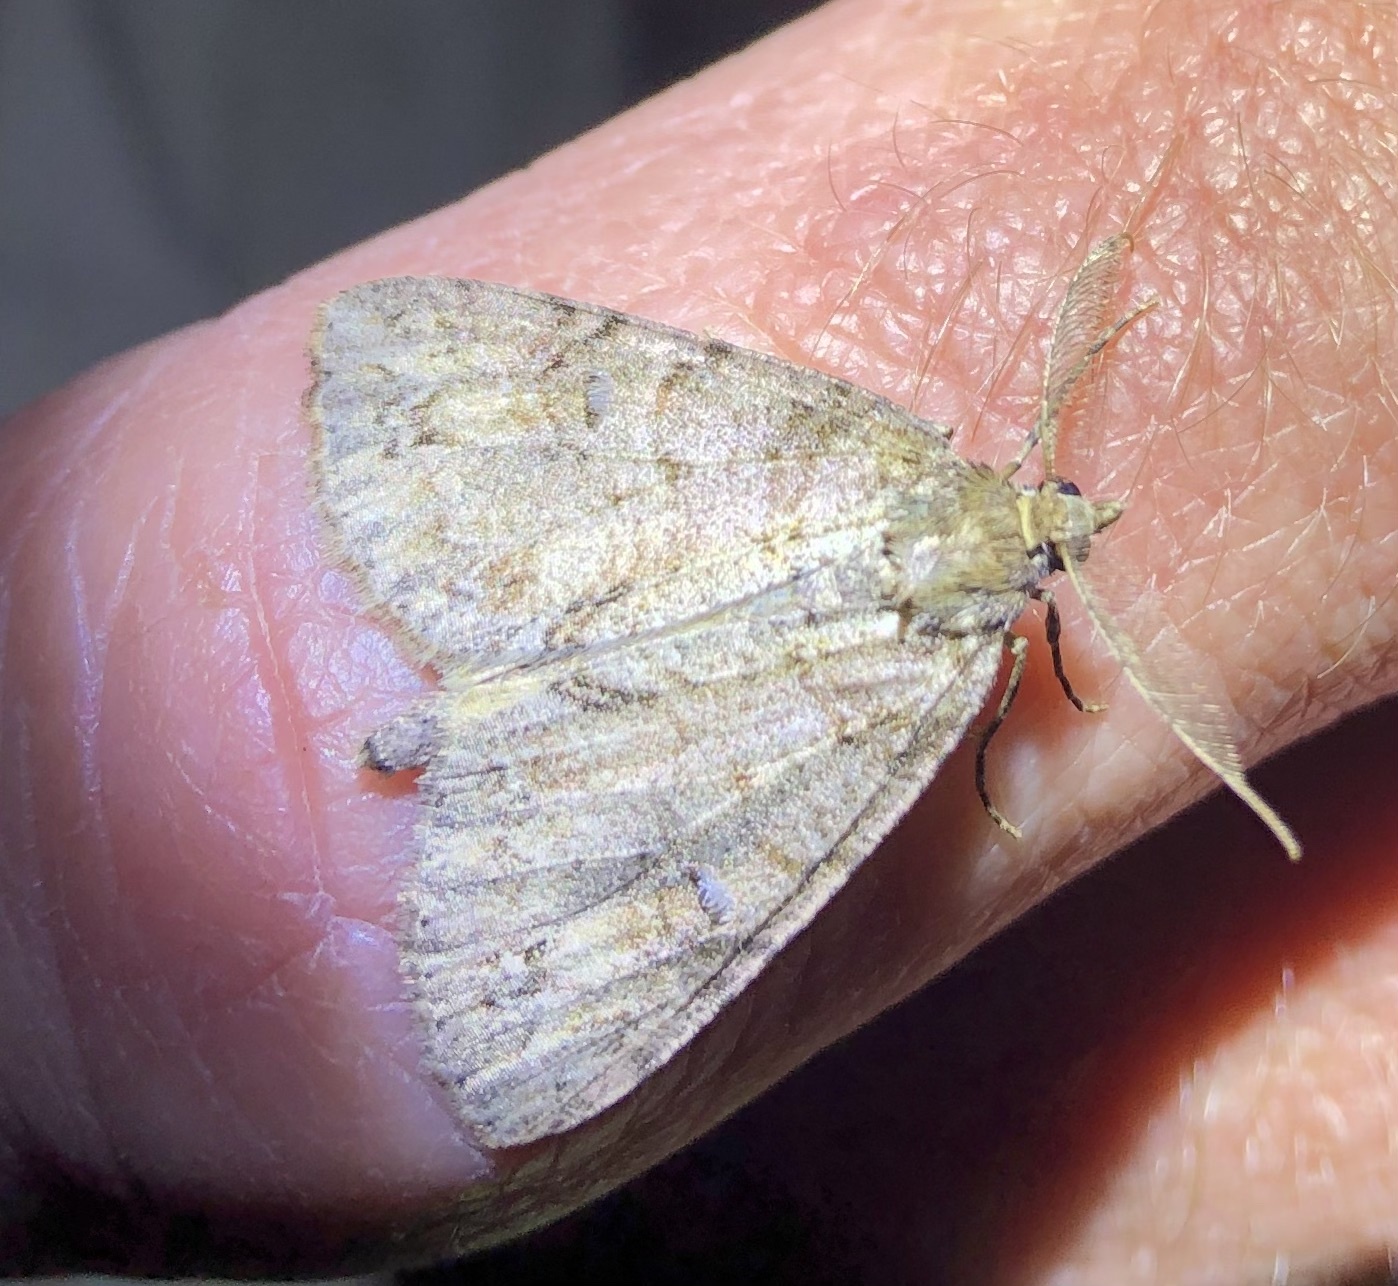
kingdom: Animalia
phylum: Arthropoda
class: Insecta
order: Lepidoptera
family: Geometridae
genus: Pseudocoremia
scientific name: Pseudocoremia suavis
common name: Common forest looper
